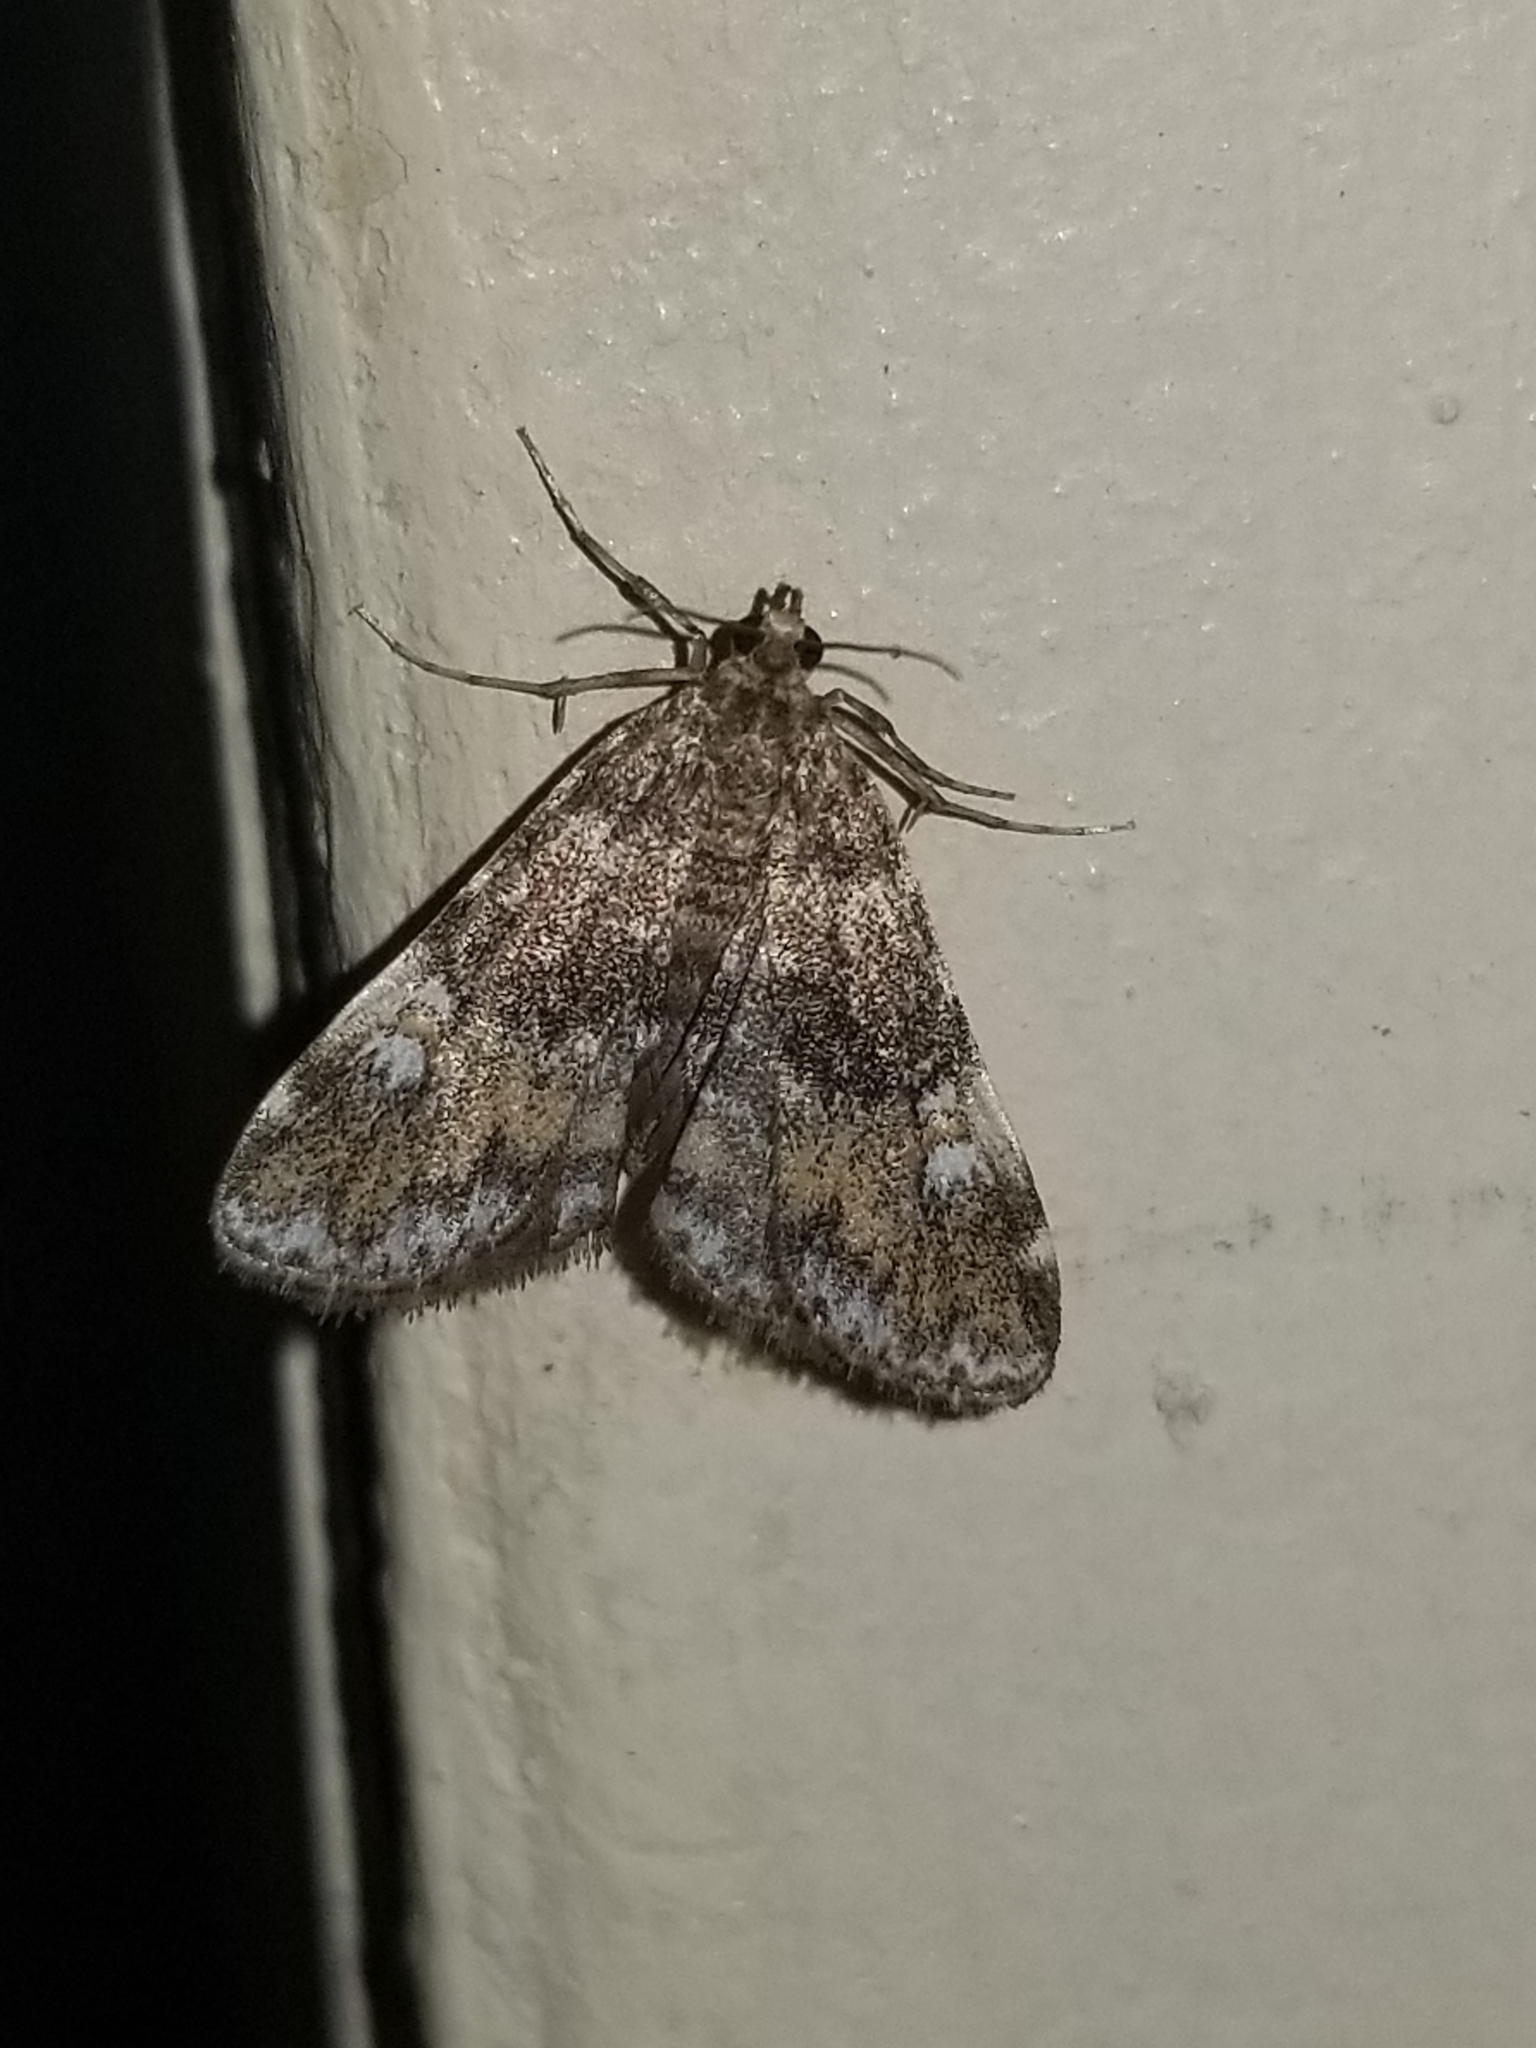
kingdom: Animalia
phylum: Arthropoda
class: Insecta
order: Lepidoptera
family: Crambidae
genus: Elophila
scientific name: Elophila obliteralis
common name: Waterlily leafcutter moth
